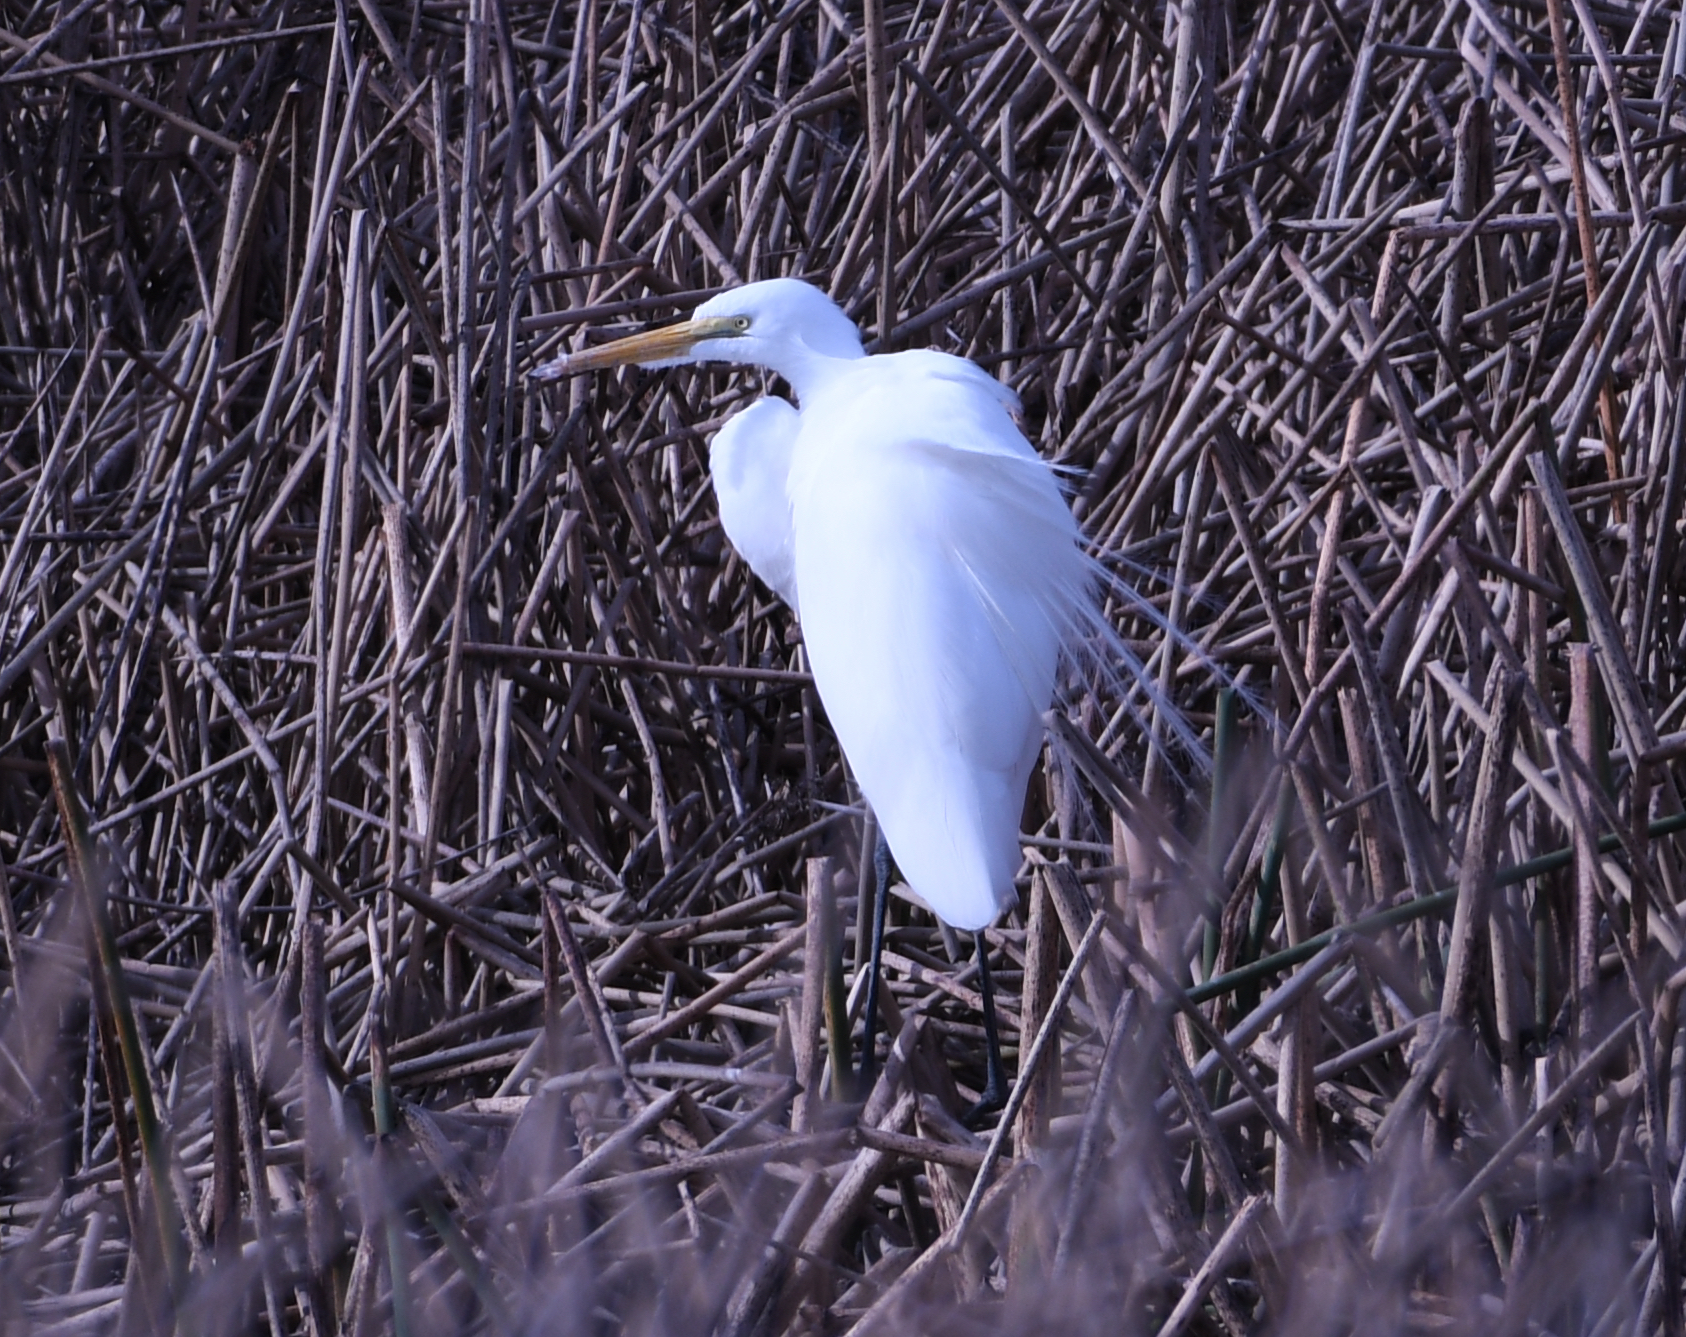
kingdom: Animalia
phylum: Chordata
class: Aves
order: Pelecaniformes
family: Ardeidae
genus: Ardea
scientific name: Ardea alba
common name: Great egret
